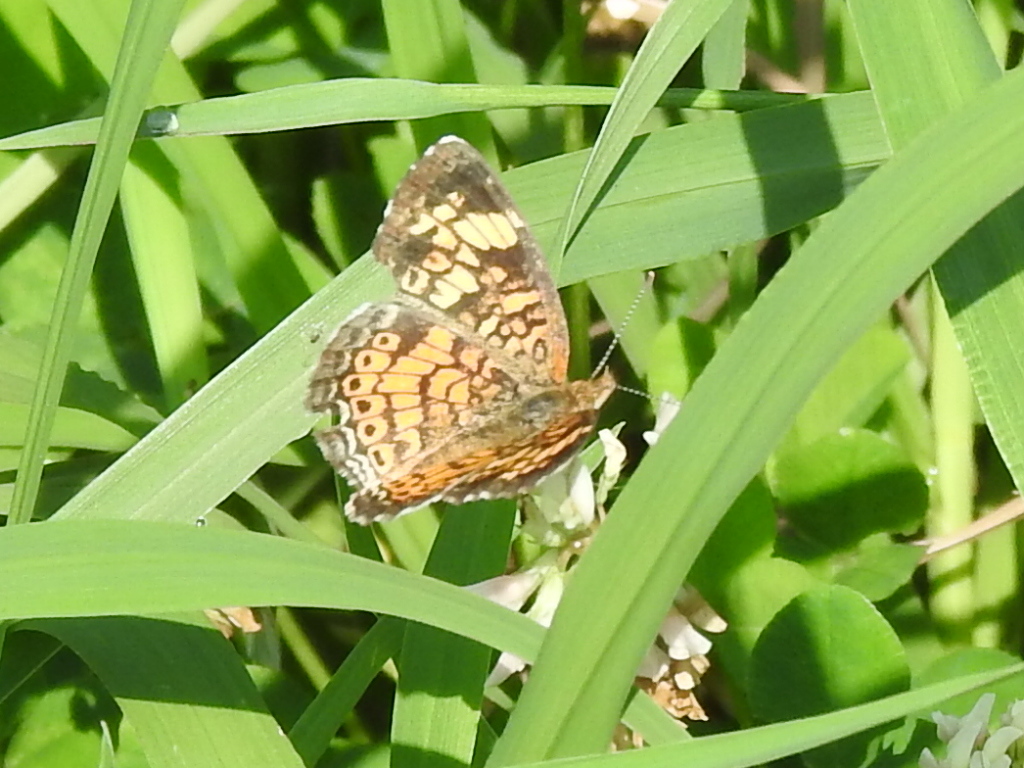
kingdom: Animalia
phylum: Arthropoda
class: Insecta
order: Lepidoptera
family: Nymphalidae
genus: Phyciodes
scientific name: Phyciodes tharos
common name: Pearl crescent
